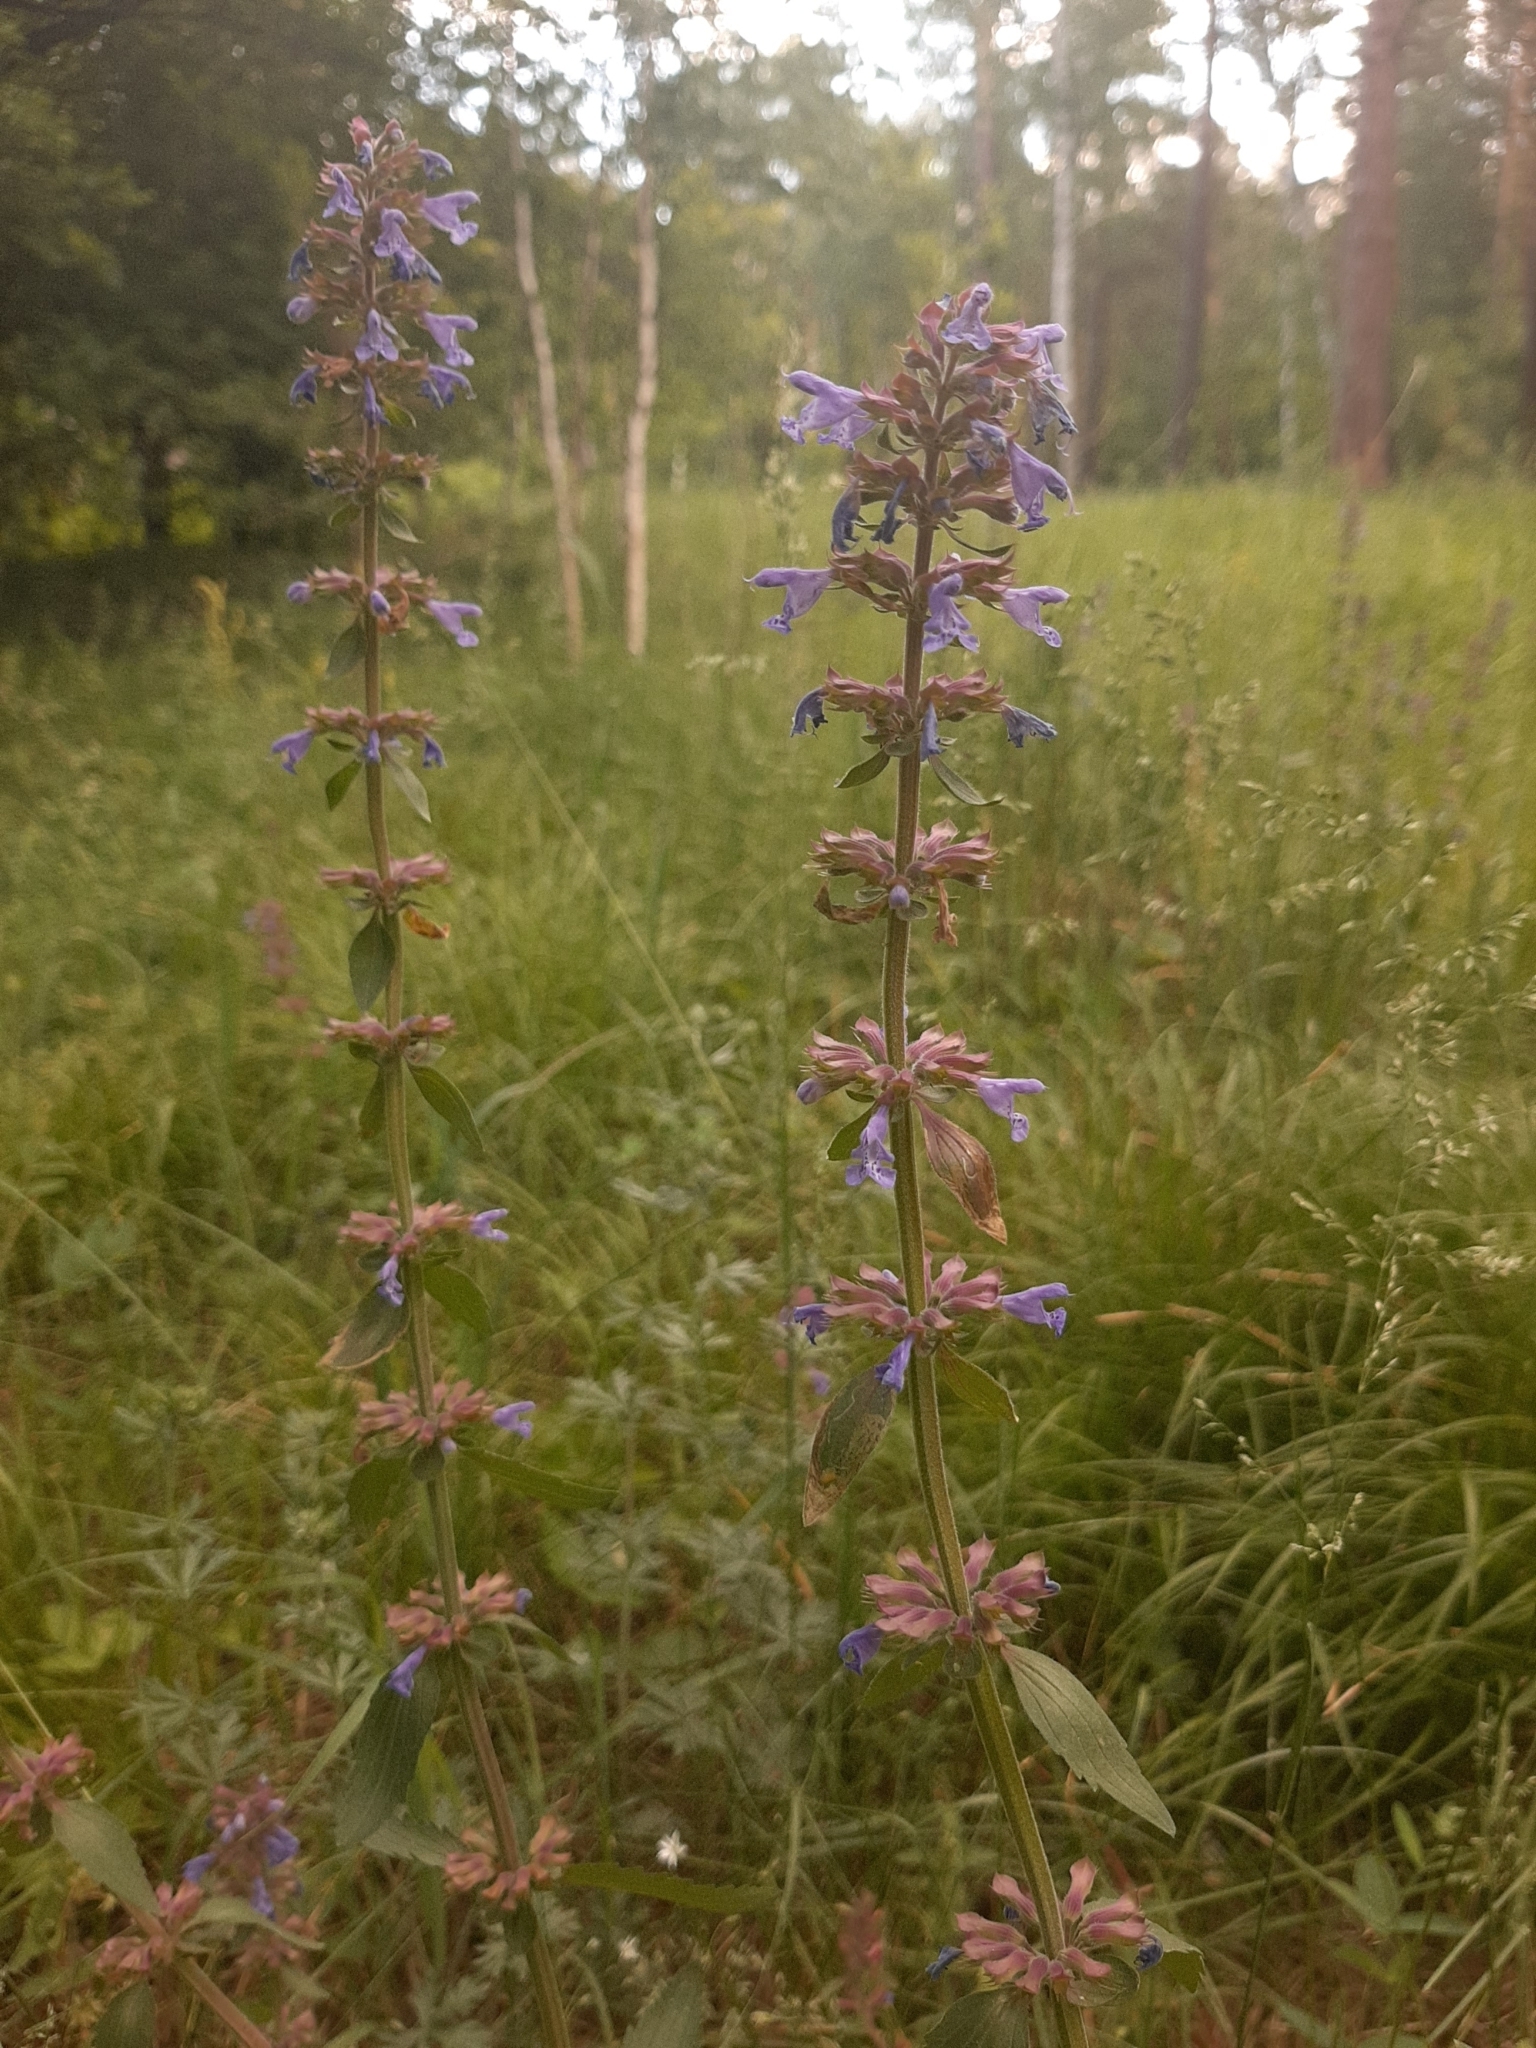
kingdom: Plantae
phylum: Tracheophyta
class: Magnoliopsida
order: Lamiales
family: Lamiaceae
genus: Dracocephalum
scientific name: Dracocephalum nutans
